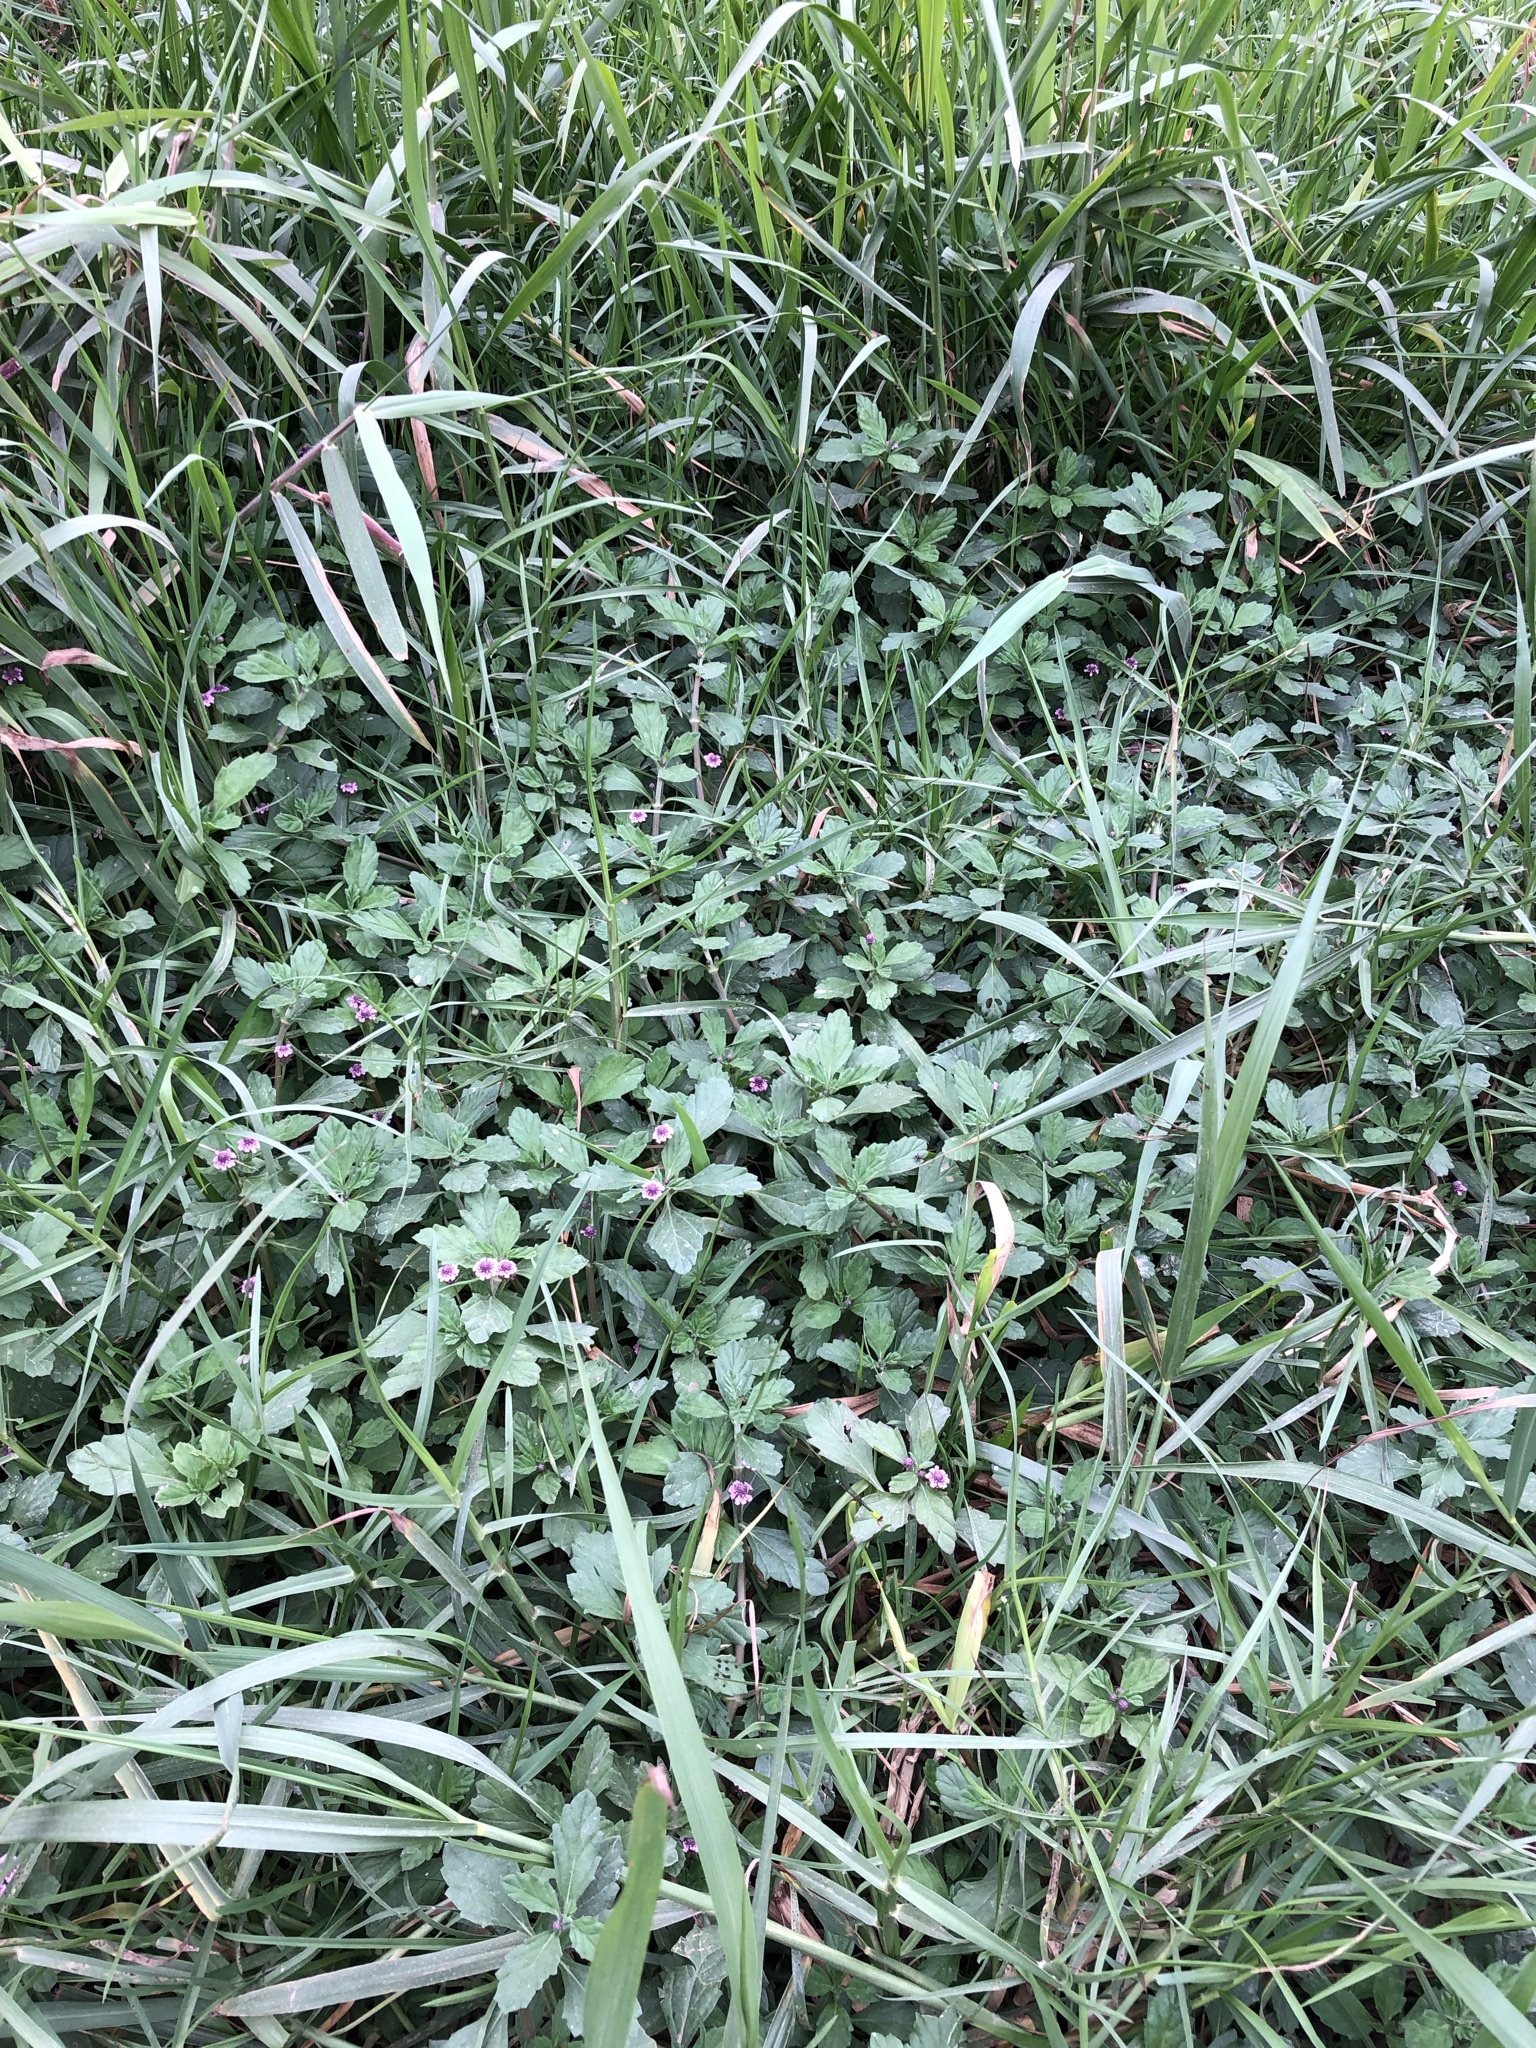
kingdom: Plantae
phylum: Tracheophyta
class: Magnoliopsida
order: Lamiales
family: Verbenaceae
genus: Phyla
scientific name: Phyla nodiflora
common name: Frogfruit
